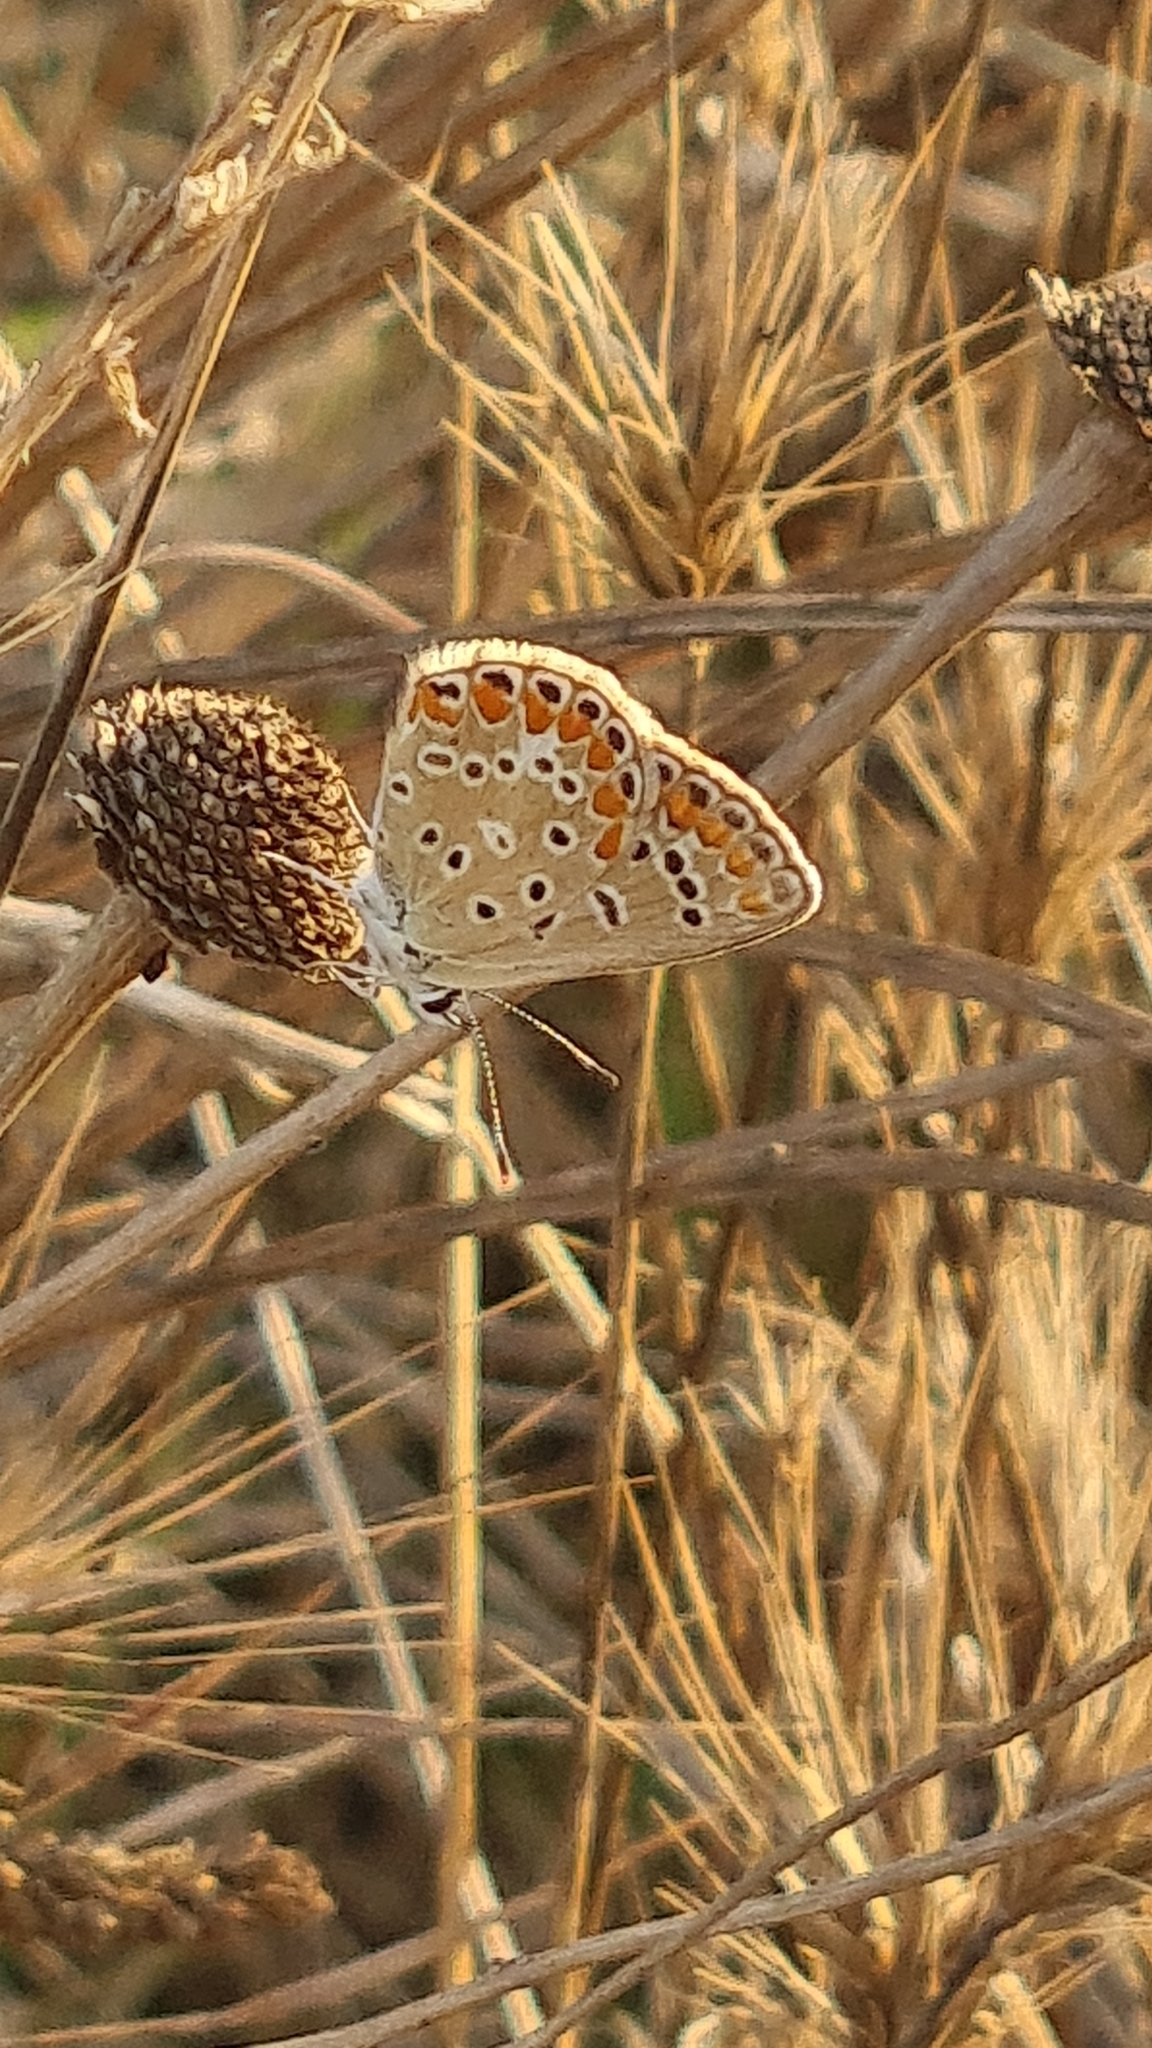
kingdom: Animalia
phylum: Arthropoda
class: Insecta
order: Lepidoptera
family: Lycaenidae
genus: Polyommatus
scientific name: Polyommatus icarus
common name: Common blue
